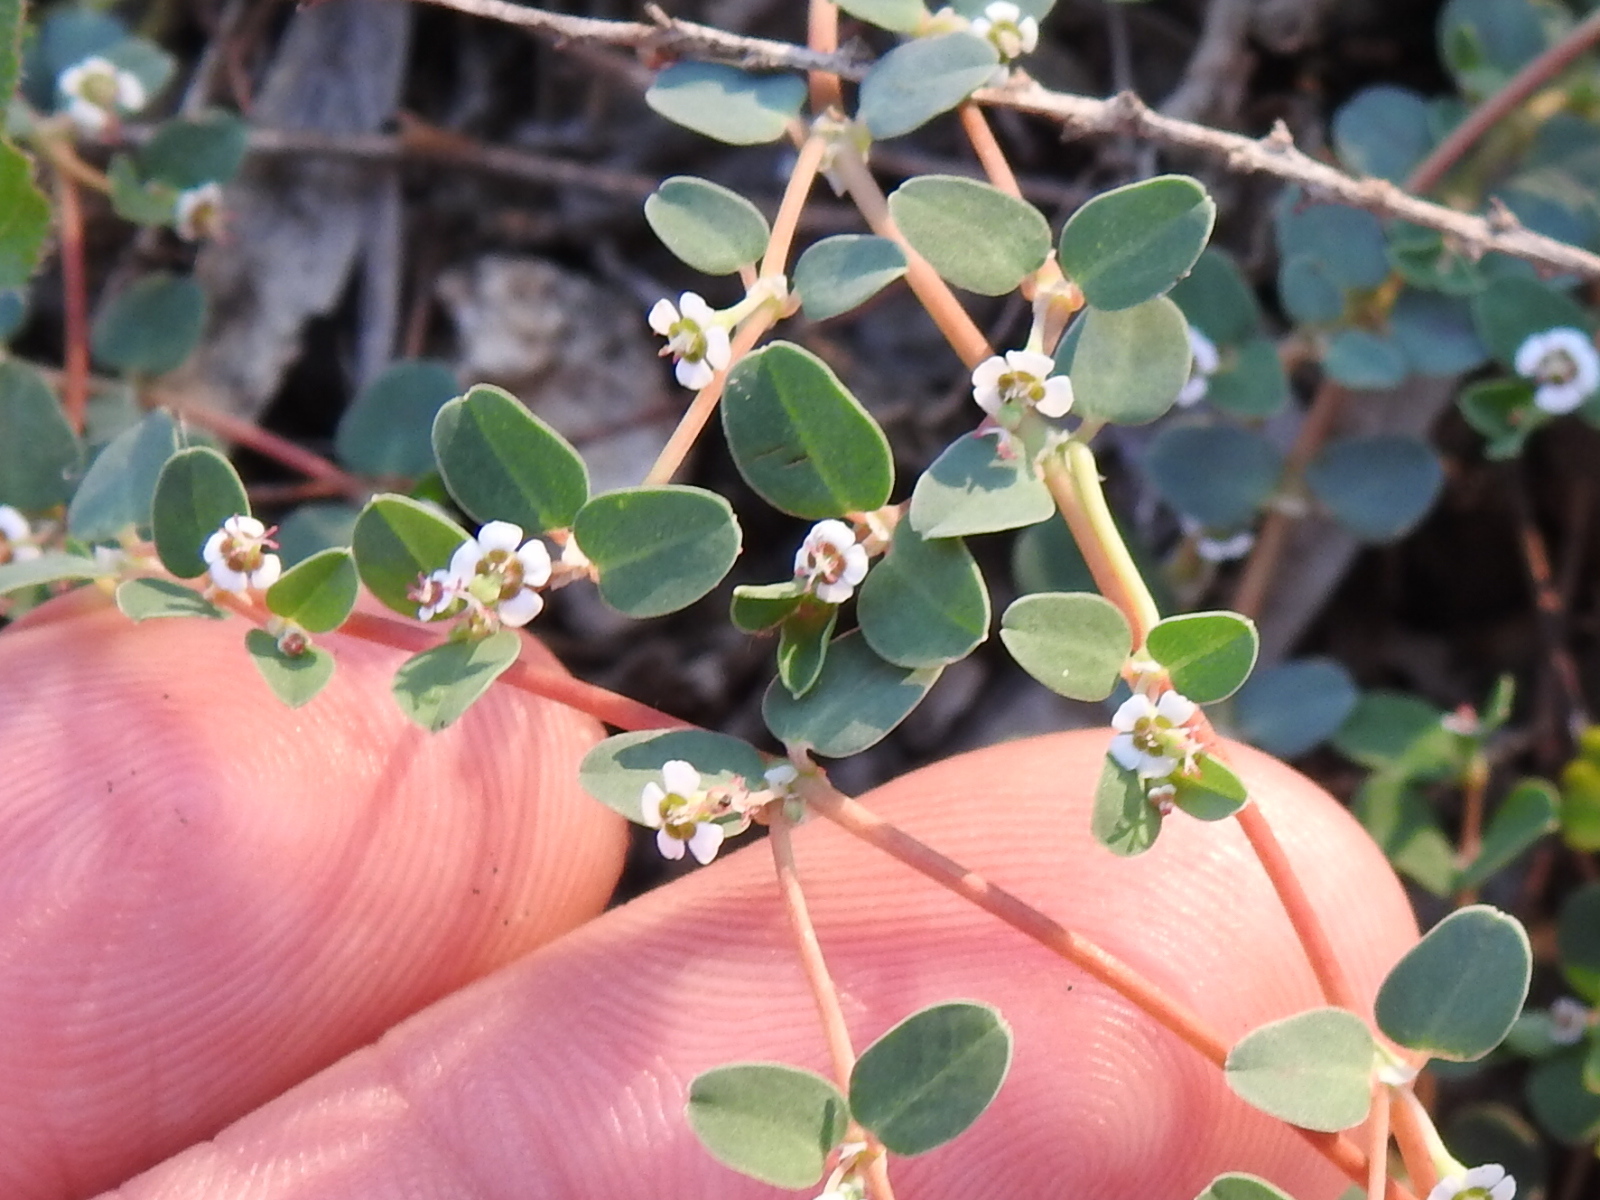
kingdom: Plantae
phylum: Tracheophyta
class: Magnoliopsida
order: Malpighiales
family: Euphorbiaceae
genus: Euphorbia
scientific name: Euphorbia albomarginata
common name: Whitemargin sandmat
